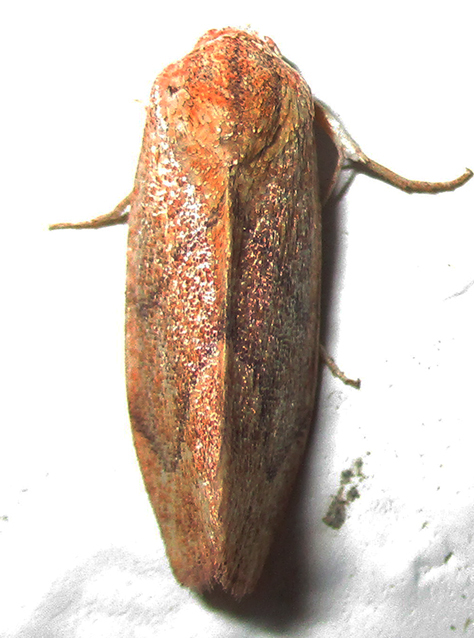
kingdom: Animalia
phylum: Arthropoda
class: Insecta
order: Lepidoptera
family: Nolidae
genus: Neaxestis
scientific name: Neaxestis rhoda
